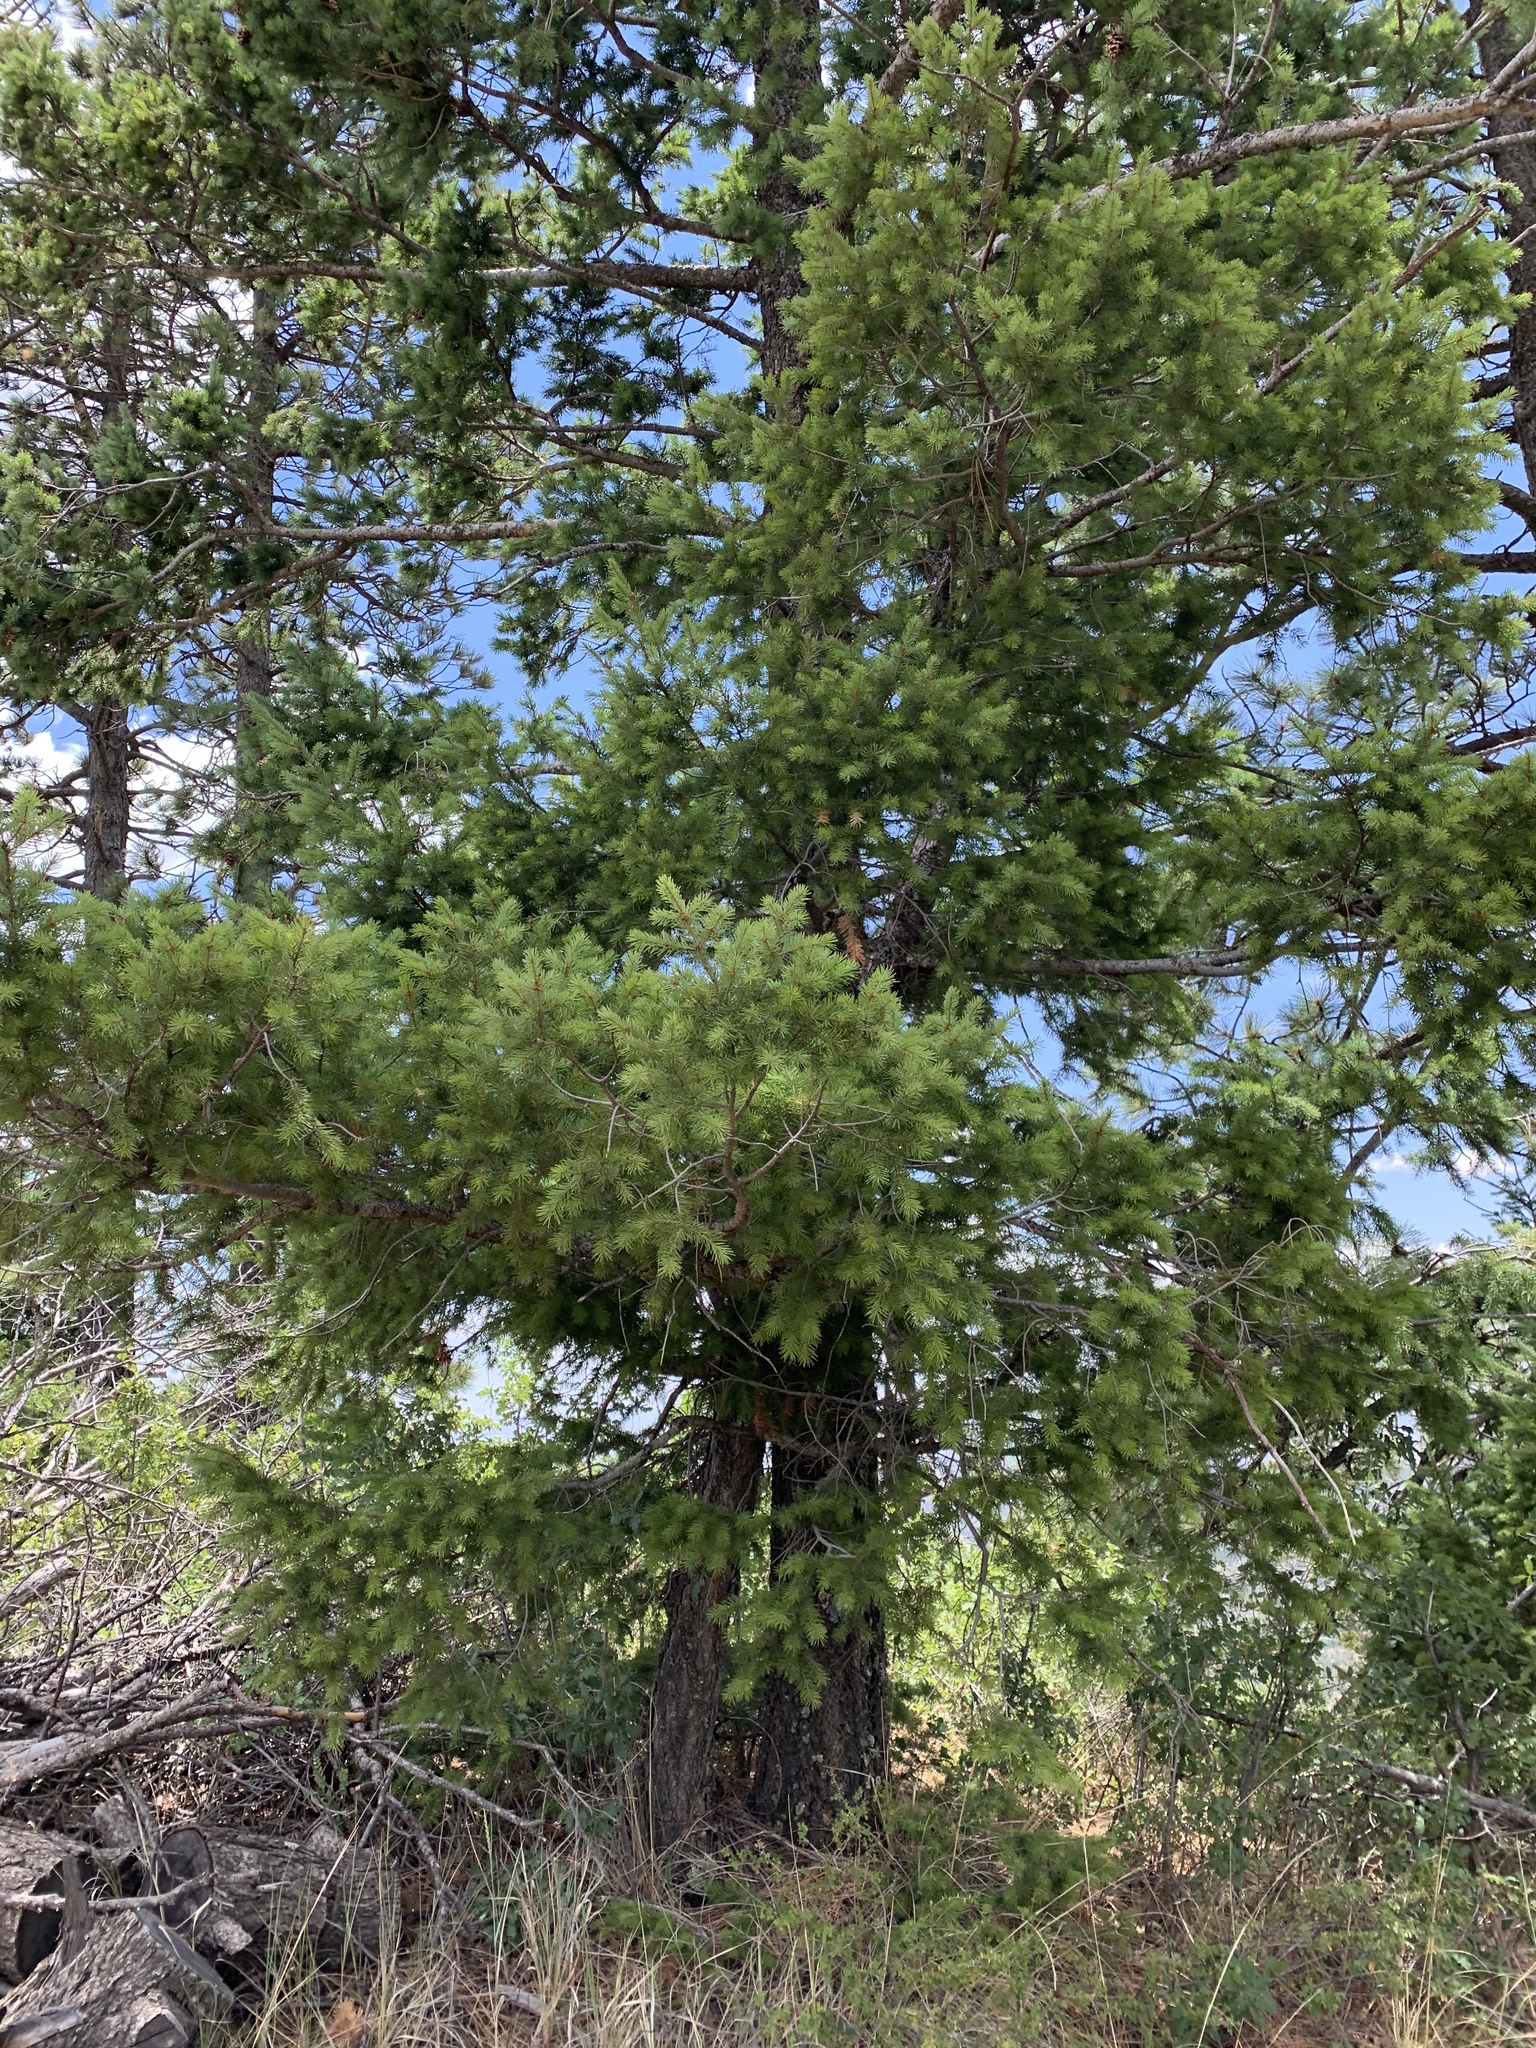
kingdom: Plantae
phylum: Tracheophyta
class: Pinopsida
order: Pinales
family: Pinaceae
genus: Pseudotsuga
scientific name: Pseudotsuga menziesii
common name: Douglas fir
